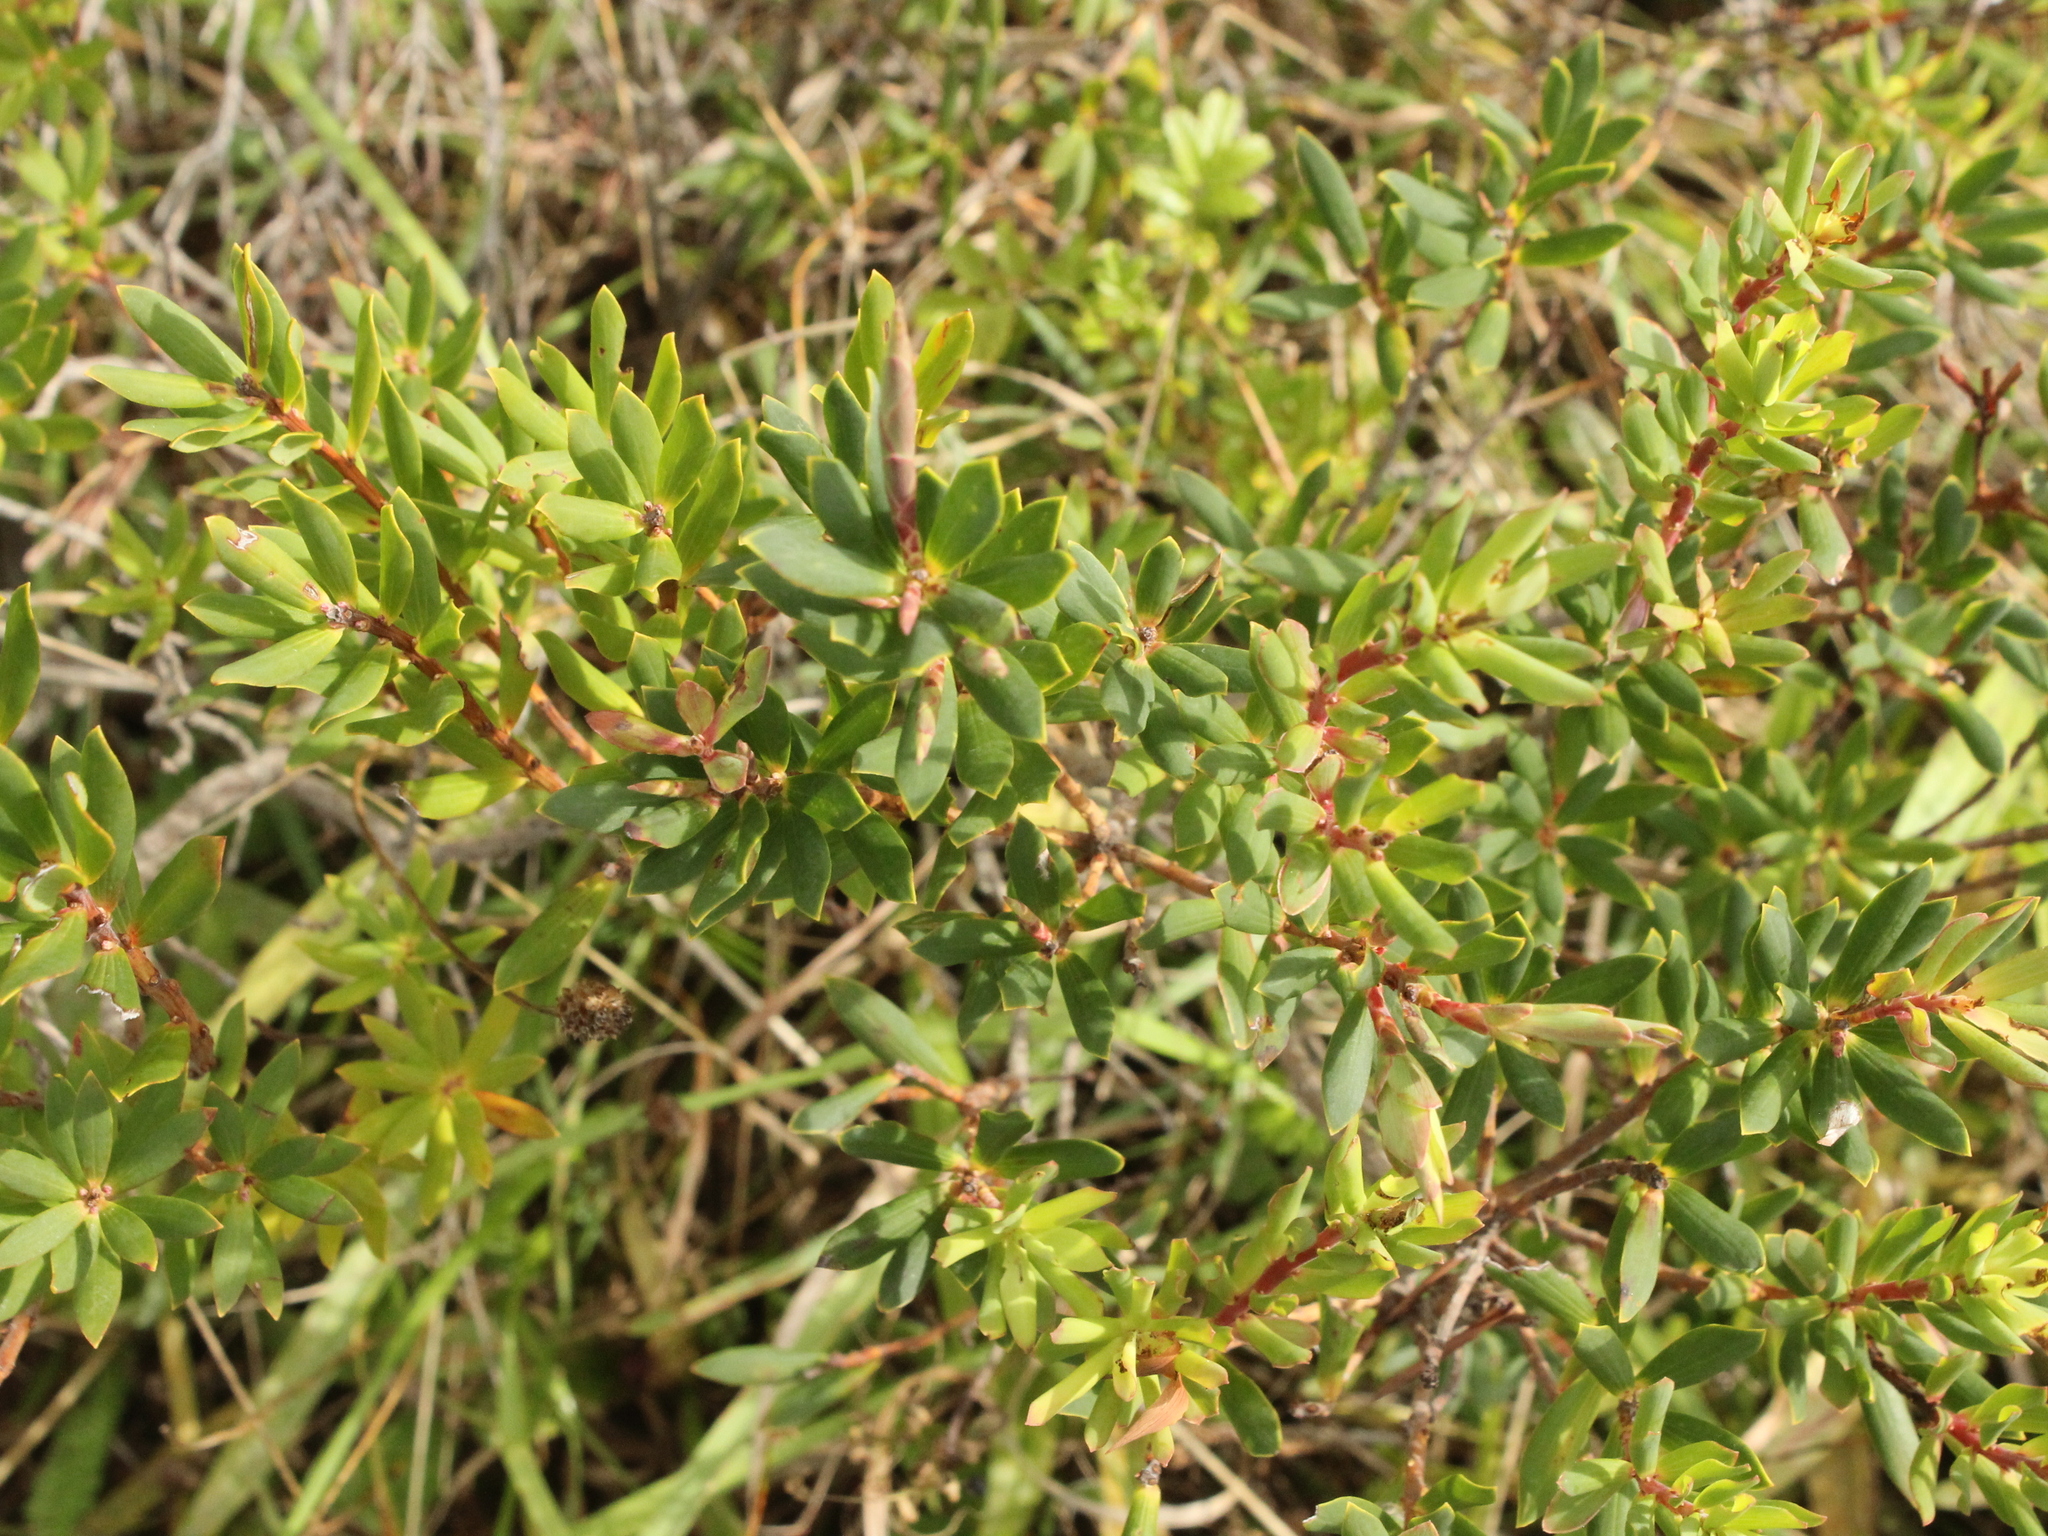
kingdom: Plantae
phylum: Tracheophyta
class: Magnoliopsida
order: Ericales
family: Ericaceae
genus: Leptecophylla
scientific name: Leptecophylla parvifolia
